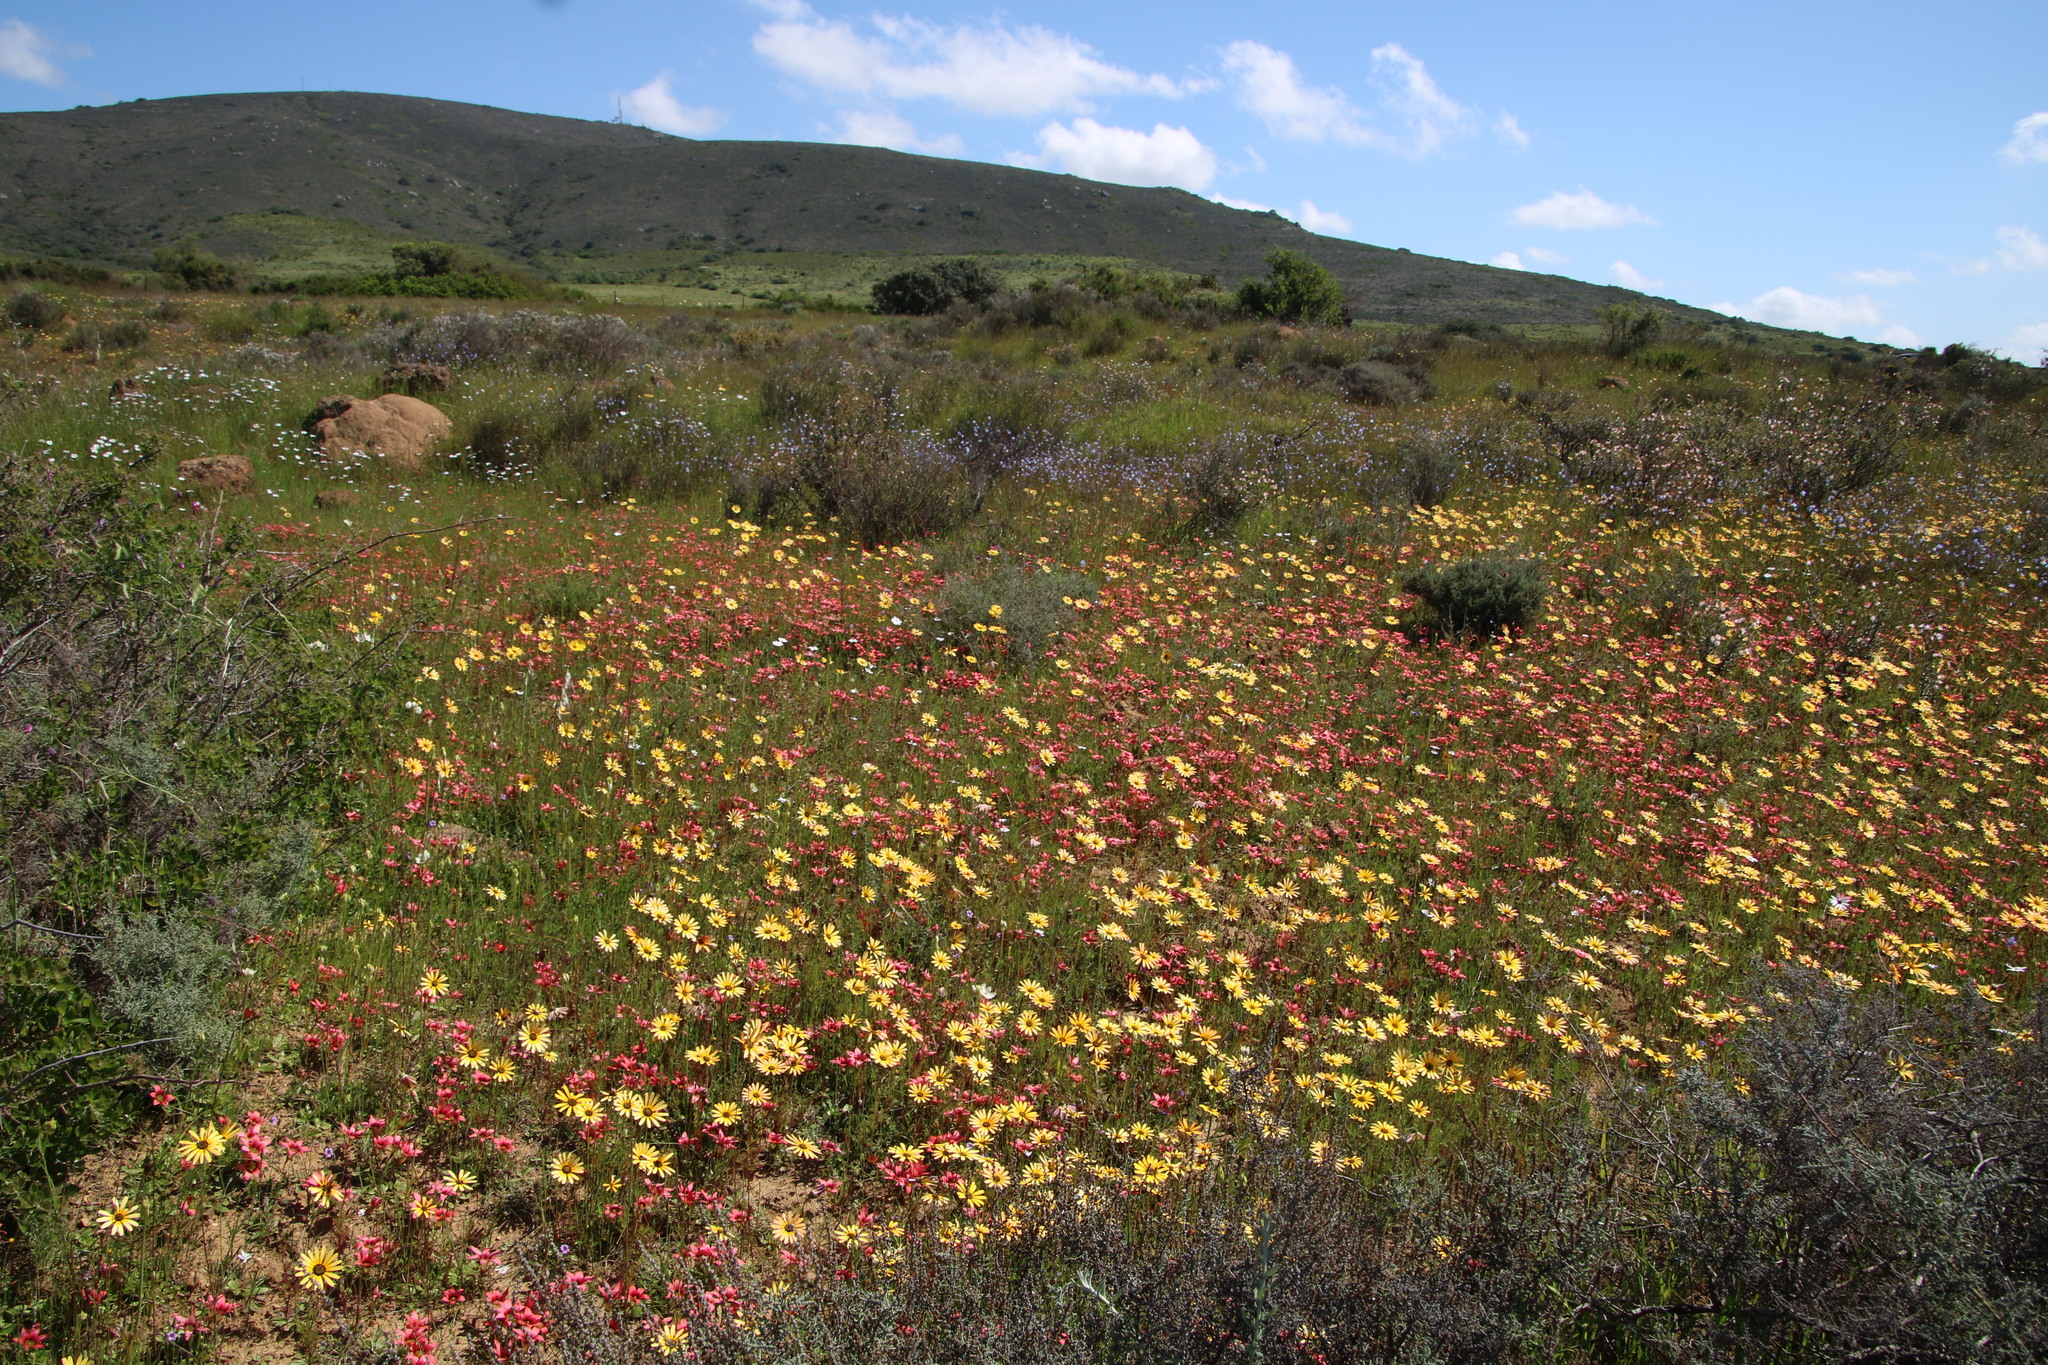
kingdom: Plantae
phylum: Tracheophyta
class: Liliopsida
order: Asparagales
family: Iridaceae
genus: Romulea
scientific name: Romulea hirsuta
